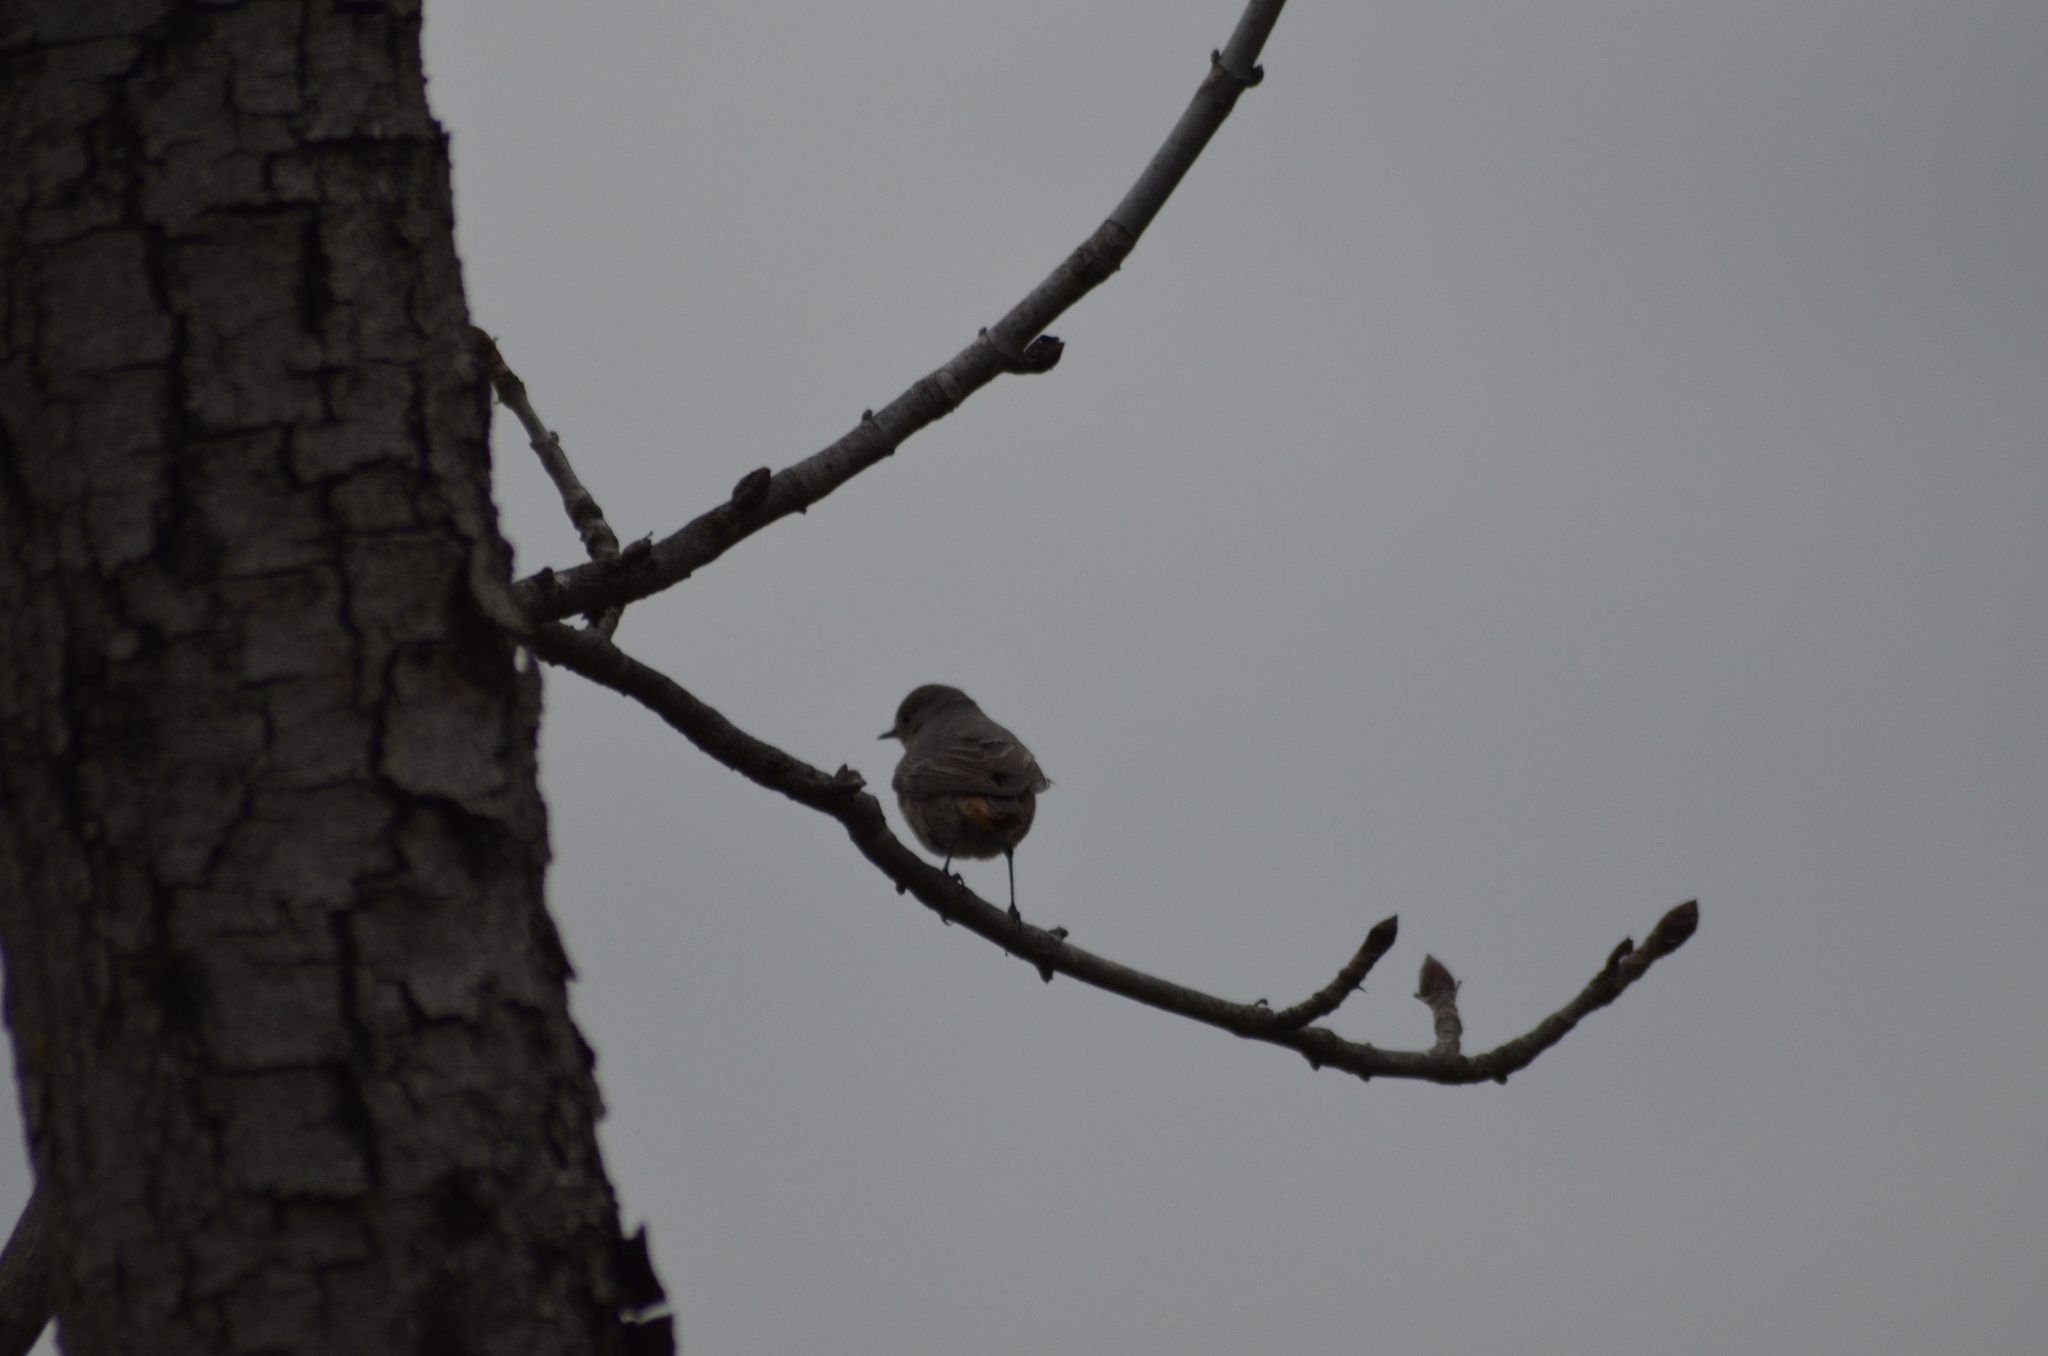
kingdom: Animalia
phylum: Chordata
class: Aves
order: Passeriformes
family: Muscicapidae
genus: Phoenicurus
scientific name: Phoenicurus ochruros
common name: Black redstart
